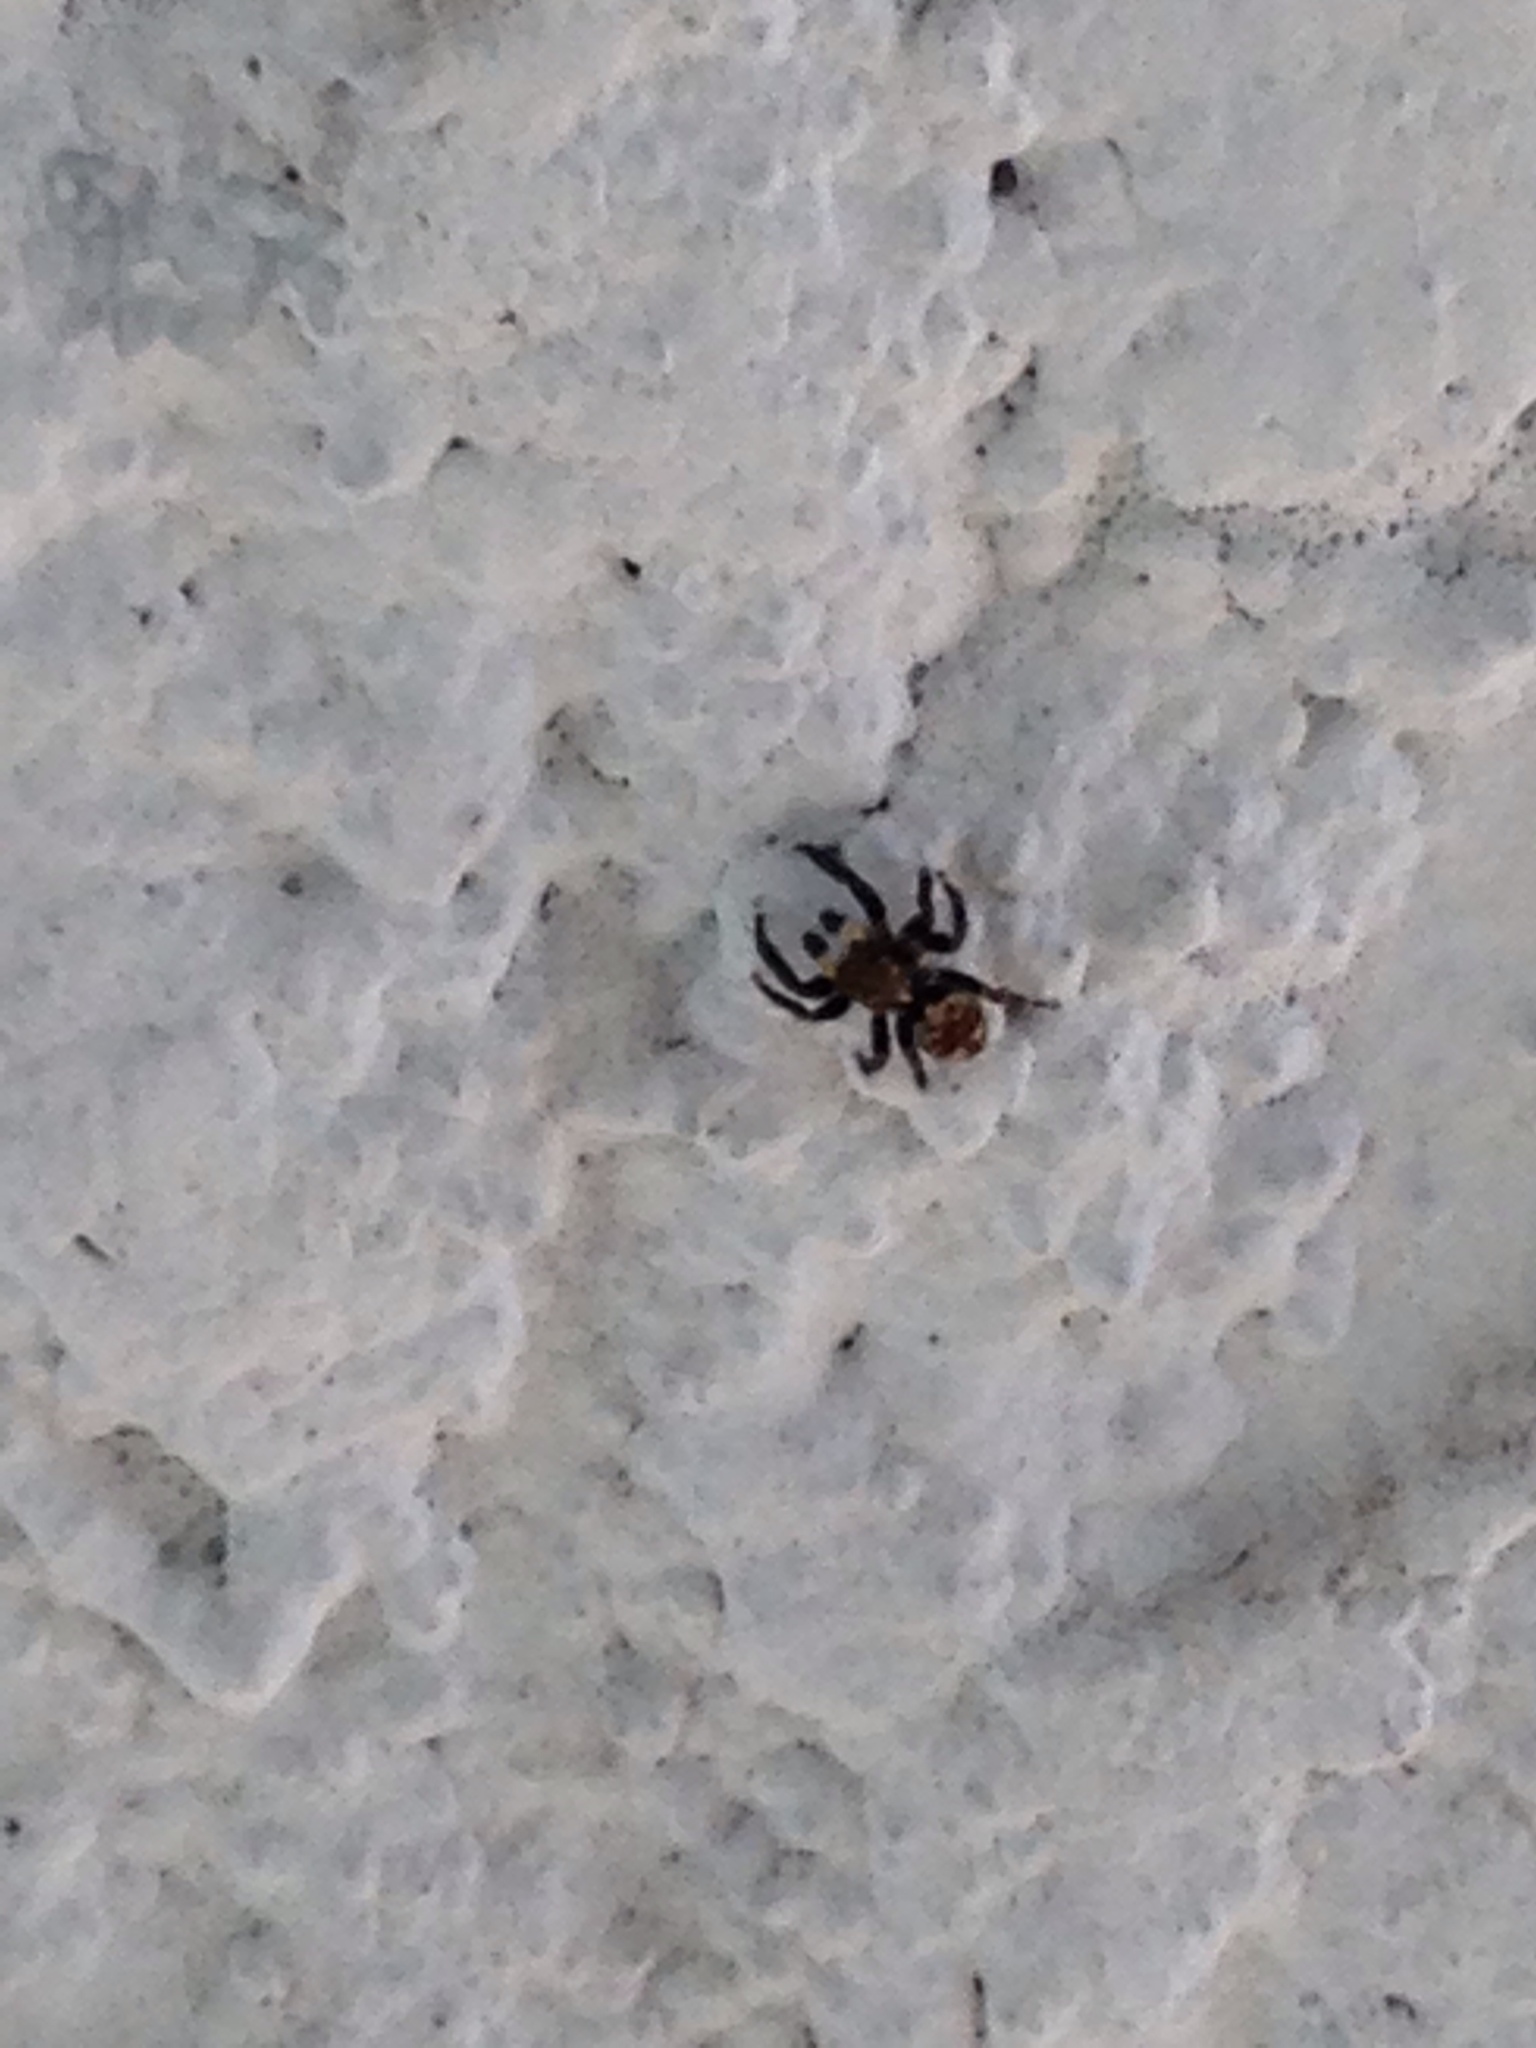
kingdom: Animalia
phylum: Arthropoda
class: Arachnida
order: Araneae
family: Salticidae
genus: Pseudeuophrys
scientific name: Pseudeuophrys erratica
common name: Jumping spider
